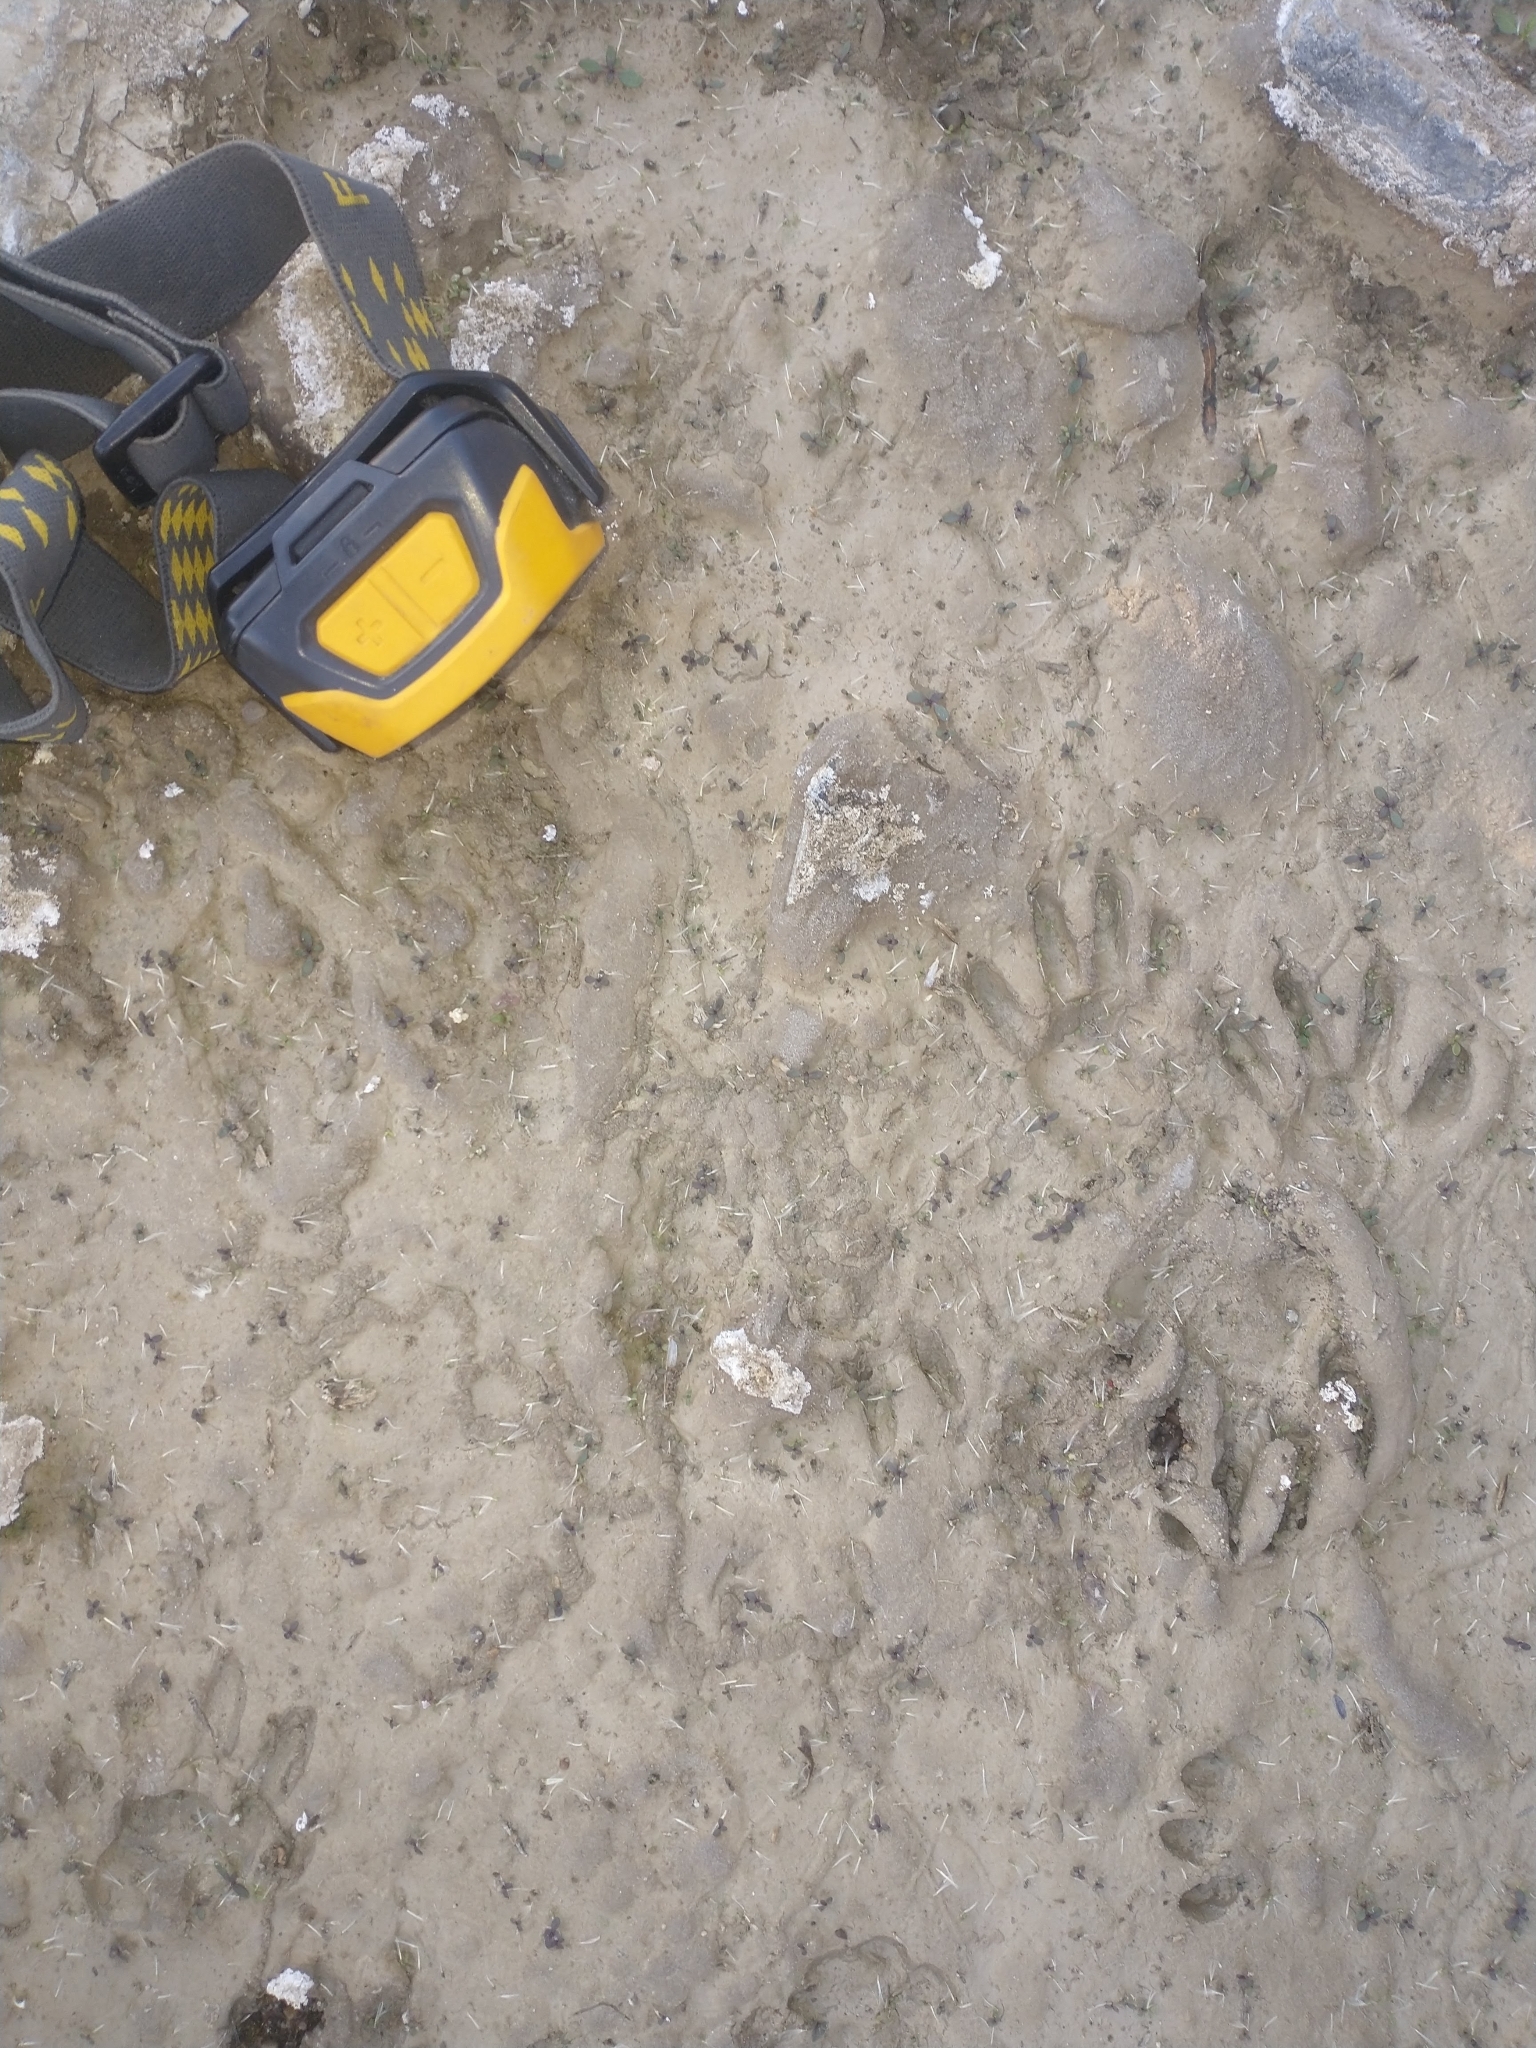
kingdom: Animalia
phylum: Chordata
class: Mammalia
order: Carnivora
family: Procyonidae
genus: Procyon
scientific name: Procyon lotor
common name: Raccoon
